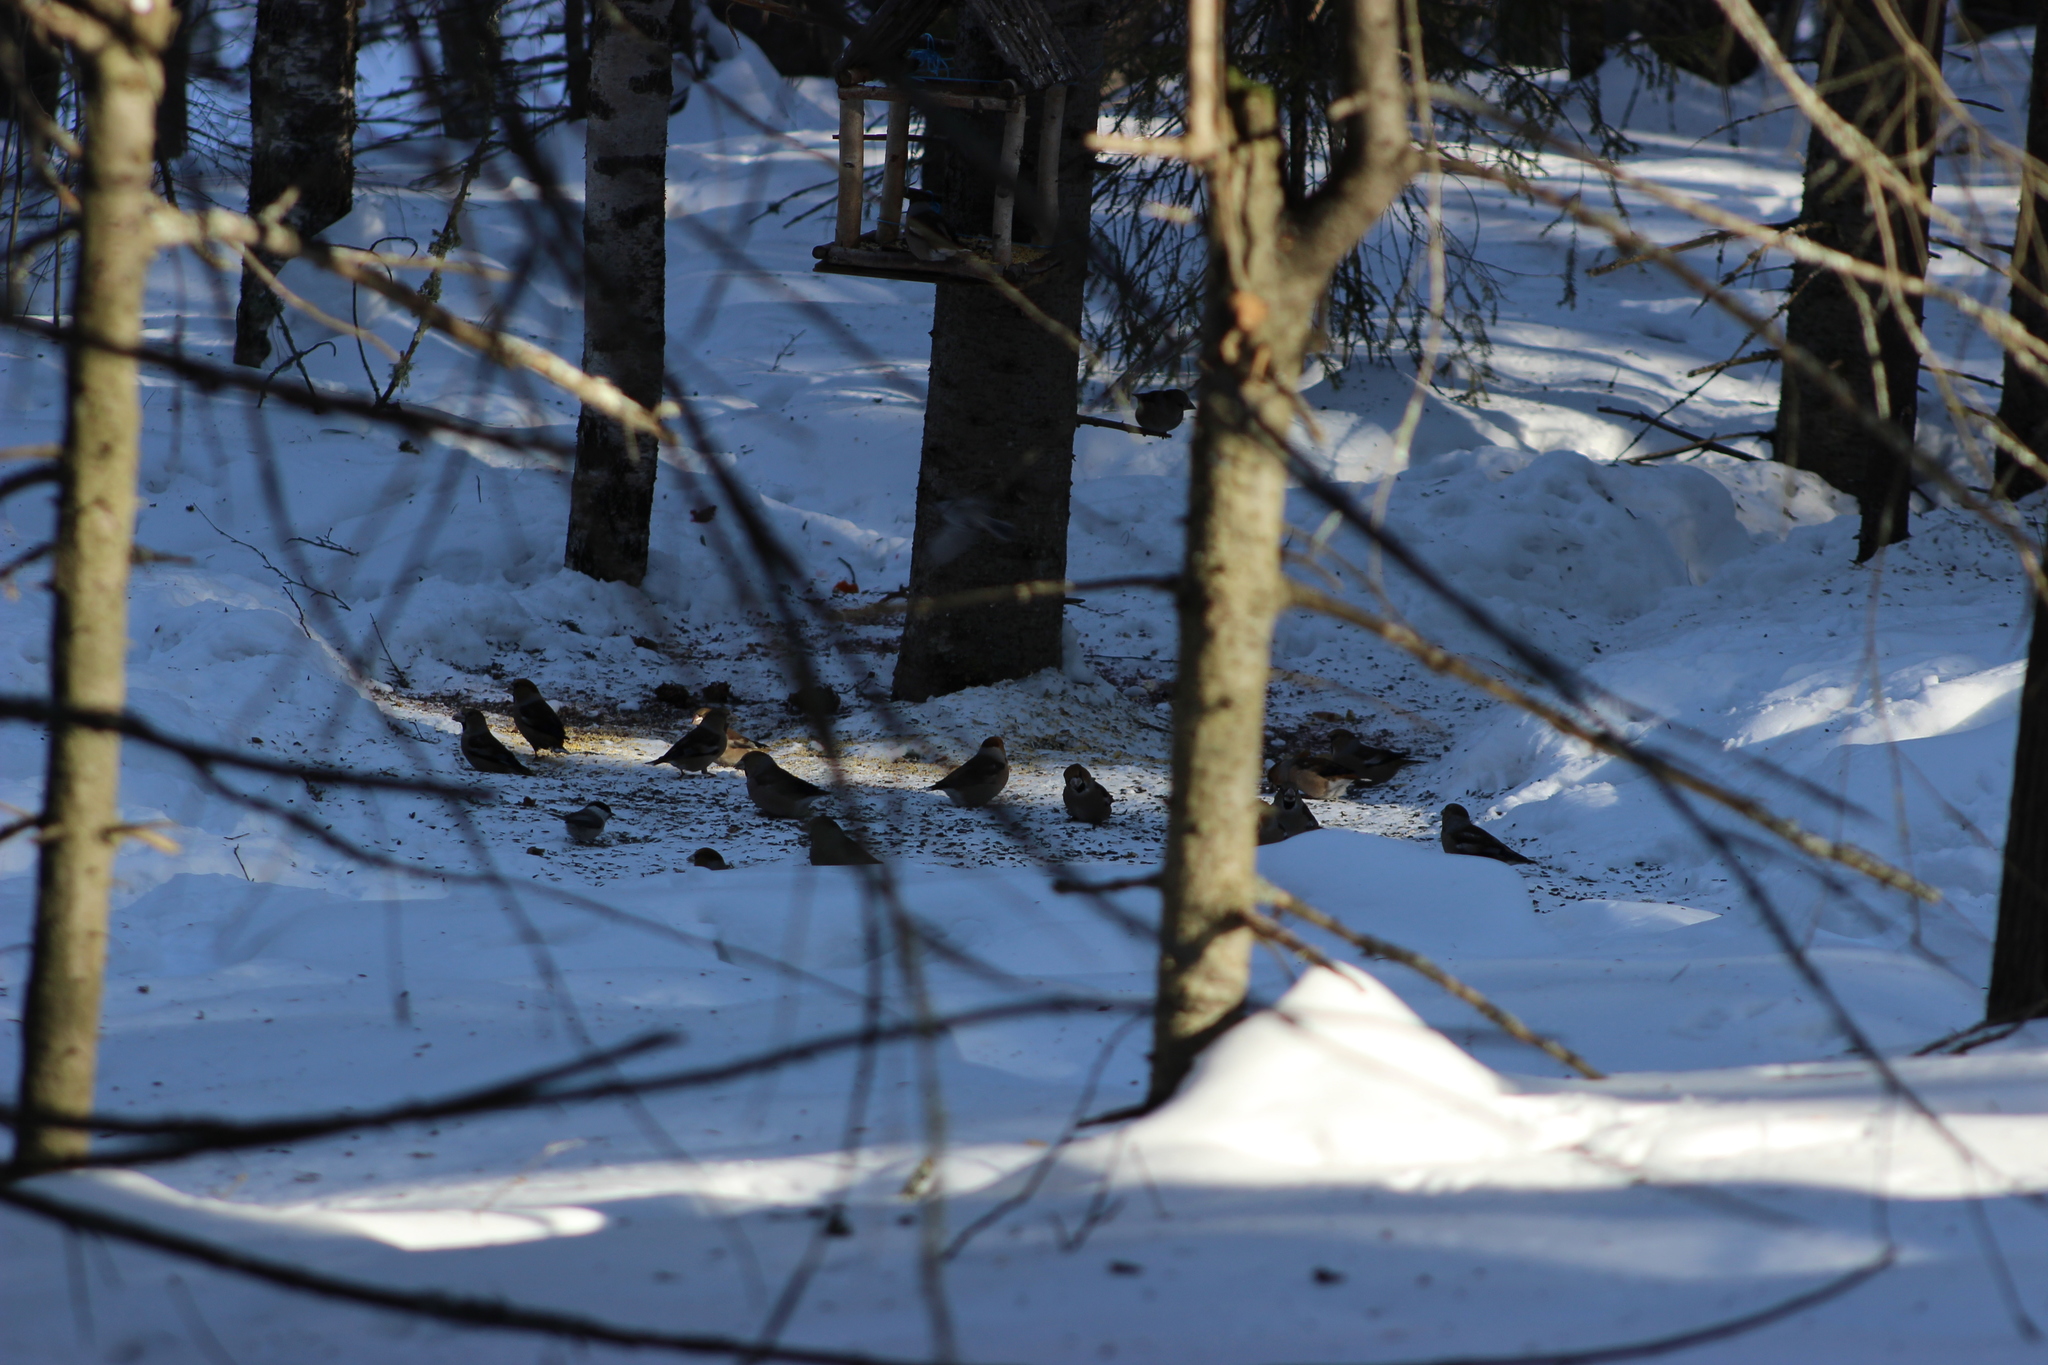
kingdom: Animalia
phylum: Chordata
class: Aves
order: Passeriformes
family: Fringillidae
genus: Coccothraustes
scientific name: Coccothraustes coccothraustes
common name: Hawfinch
